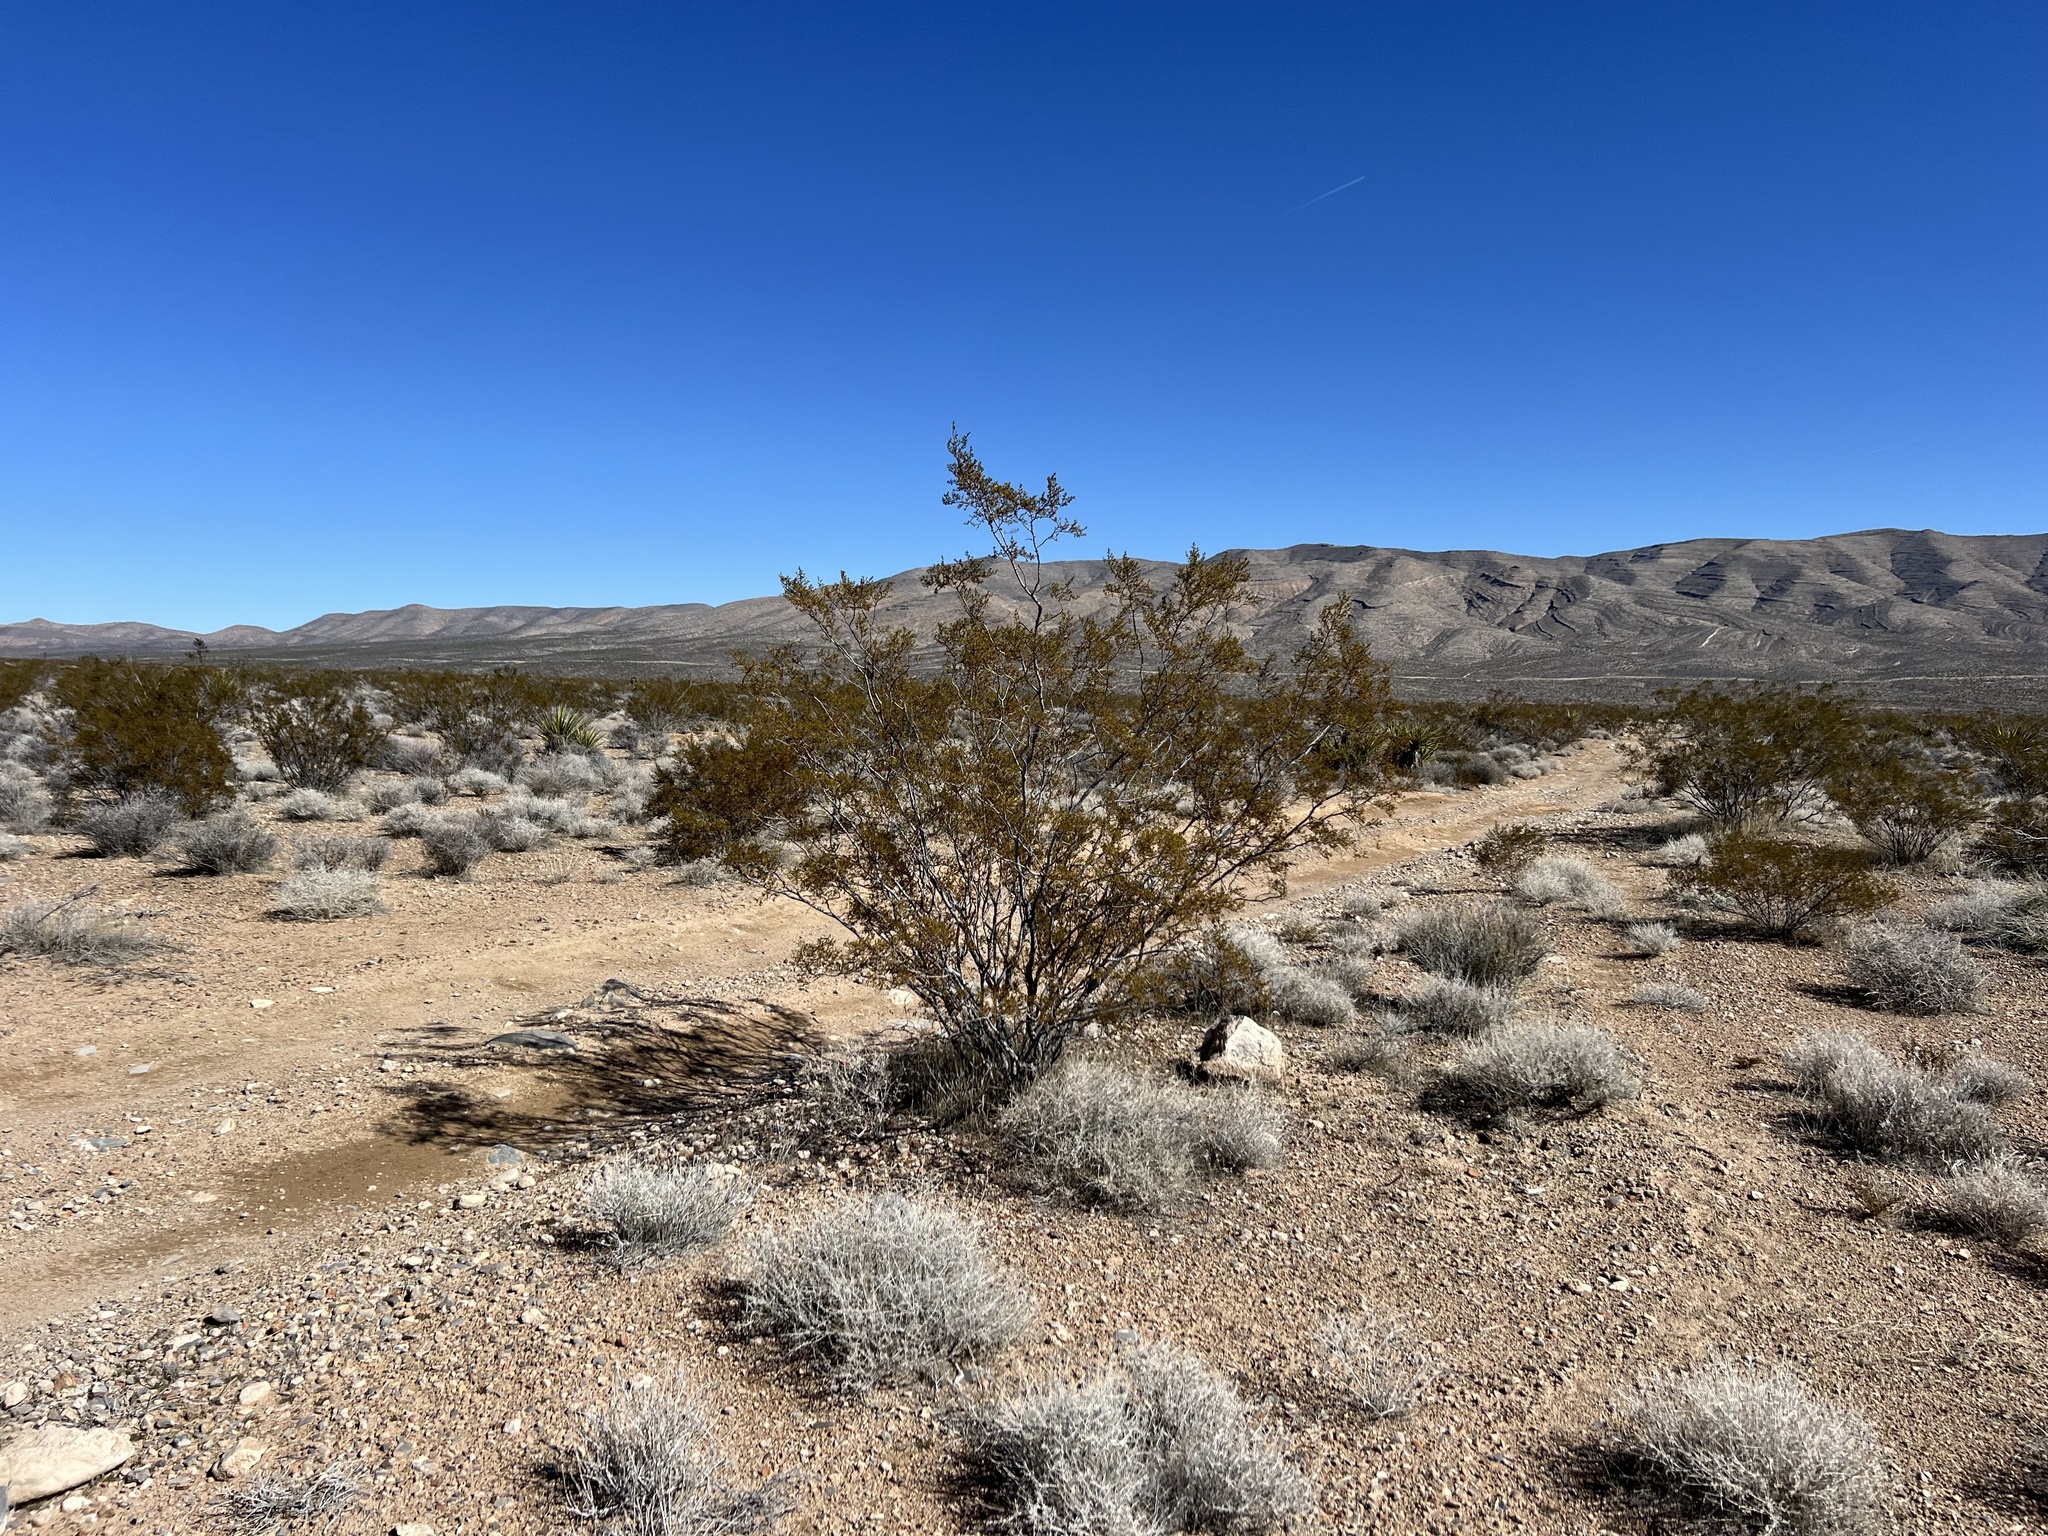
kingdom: Plantae
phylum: Tracheophyta
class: Magnoliopsida
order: Zygophyllales
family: Zygophyllaceae
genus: Larrea
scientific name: Larrea tridentata
